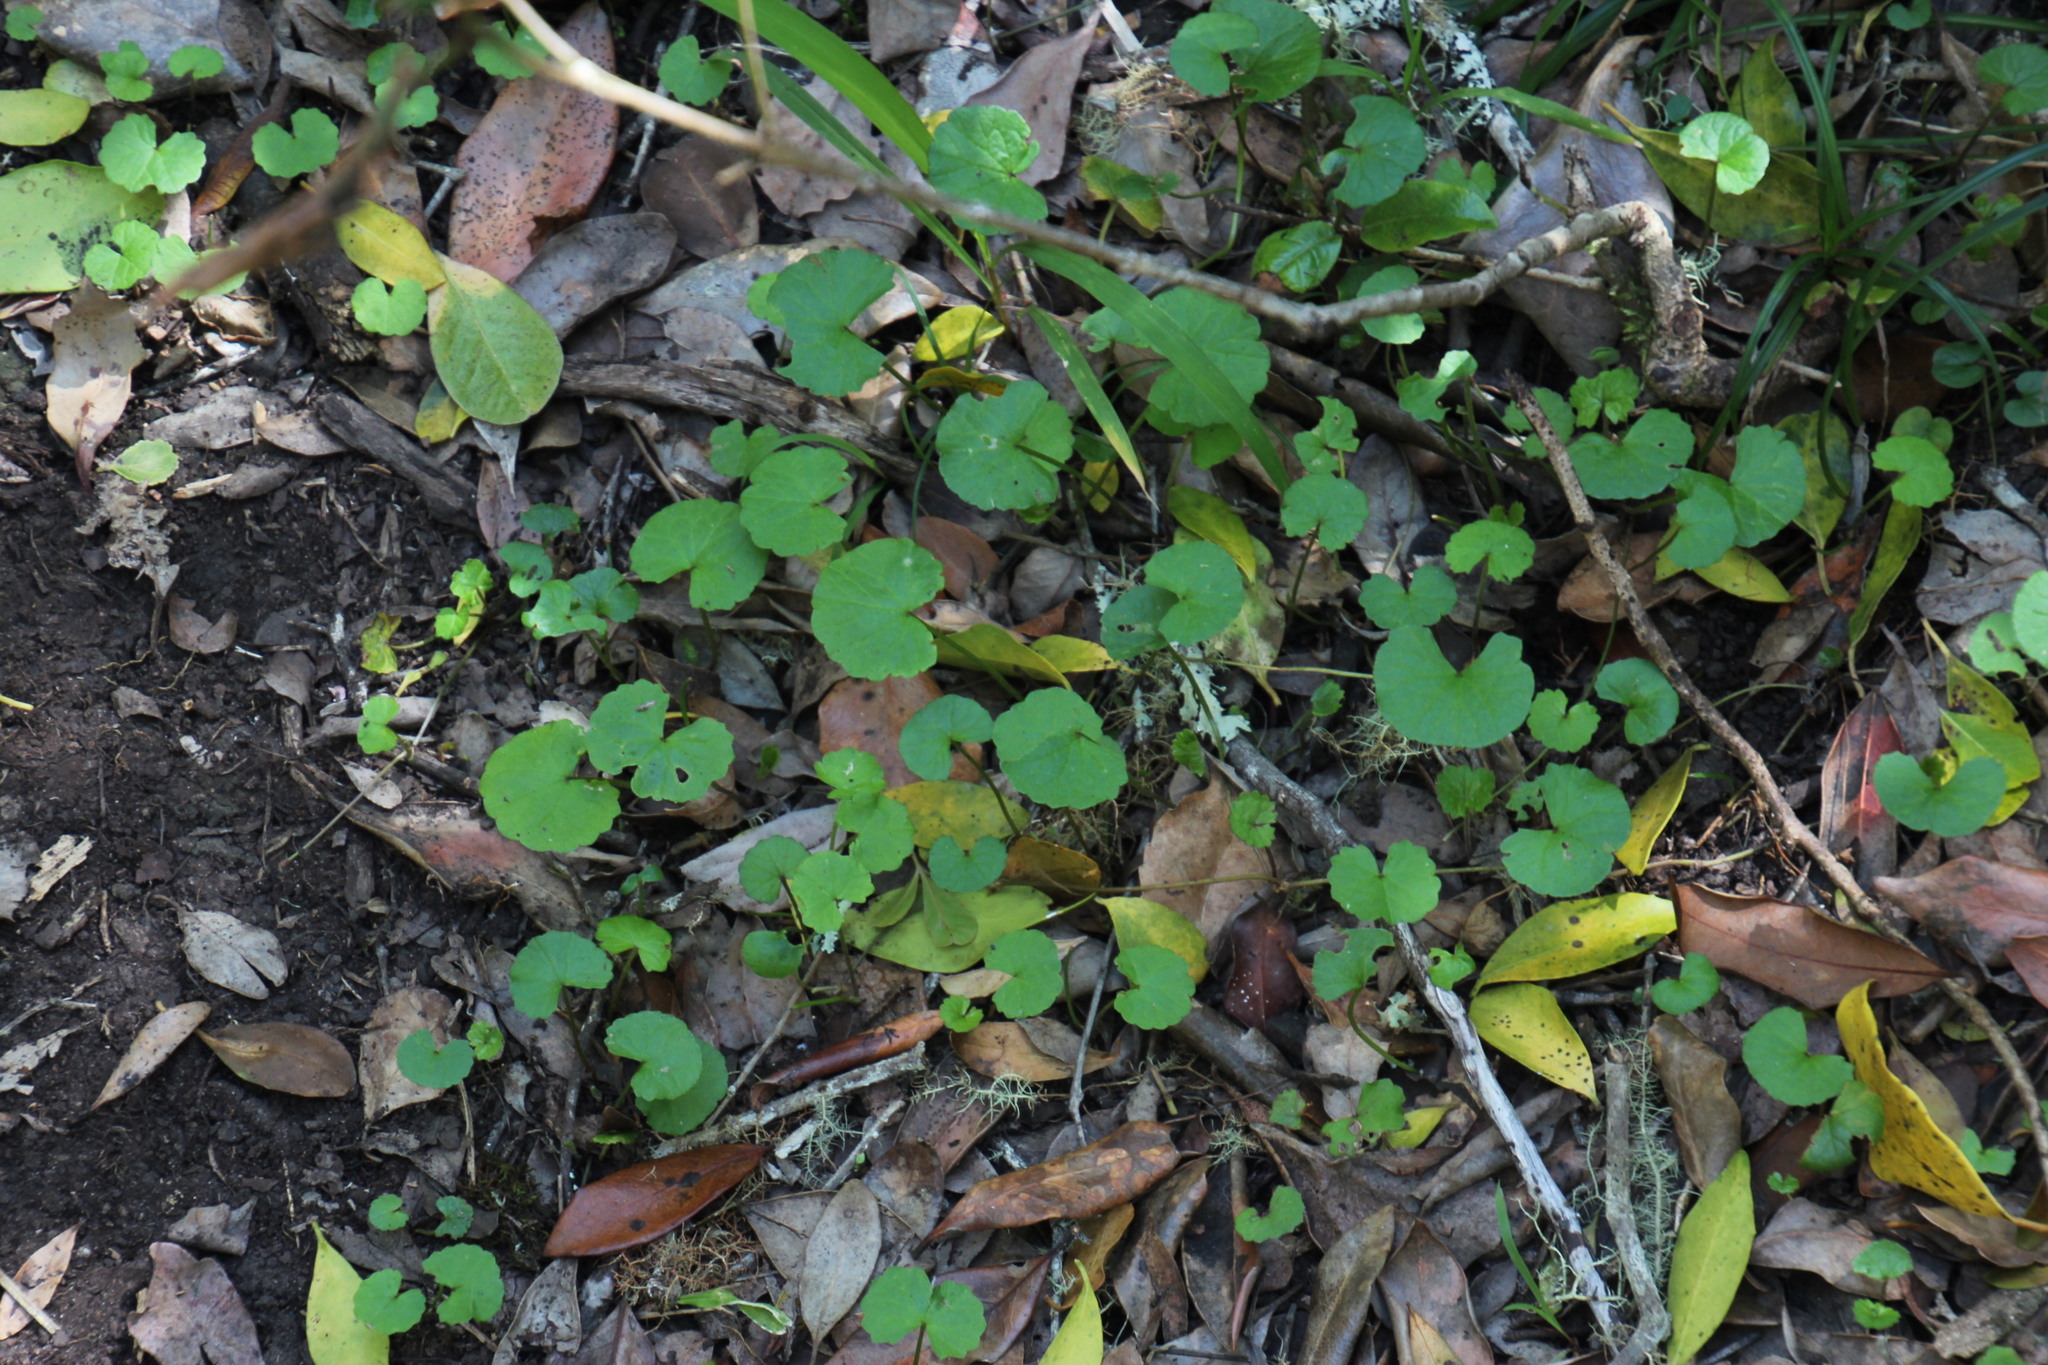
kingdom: Plantae
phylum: Tracheophyta
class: Magnoliopsida
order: Apiales
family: Apiaceae
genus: Centella
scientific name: Centella asiatica
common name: Spadeleaf
